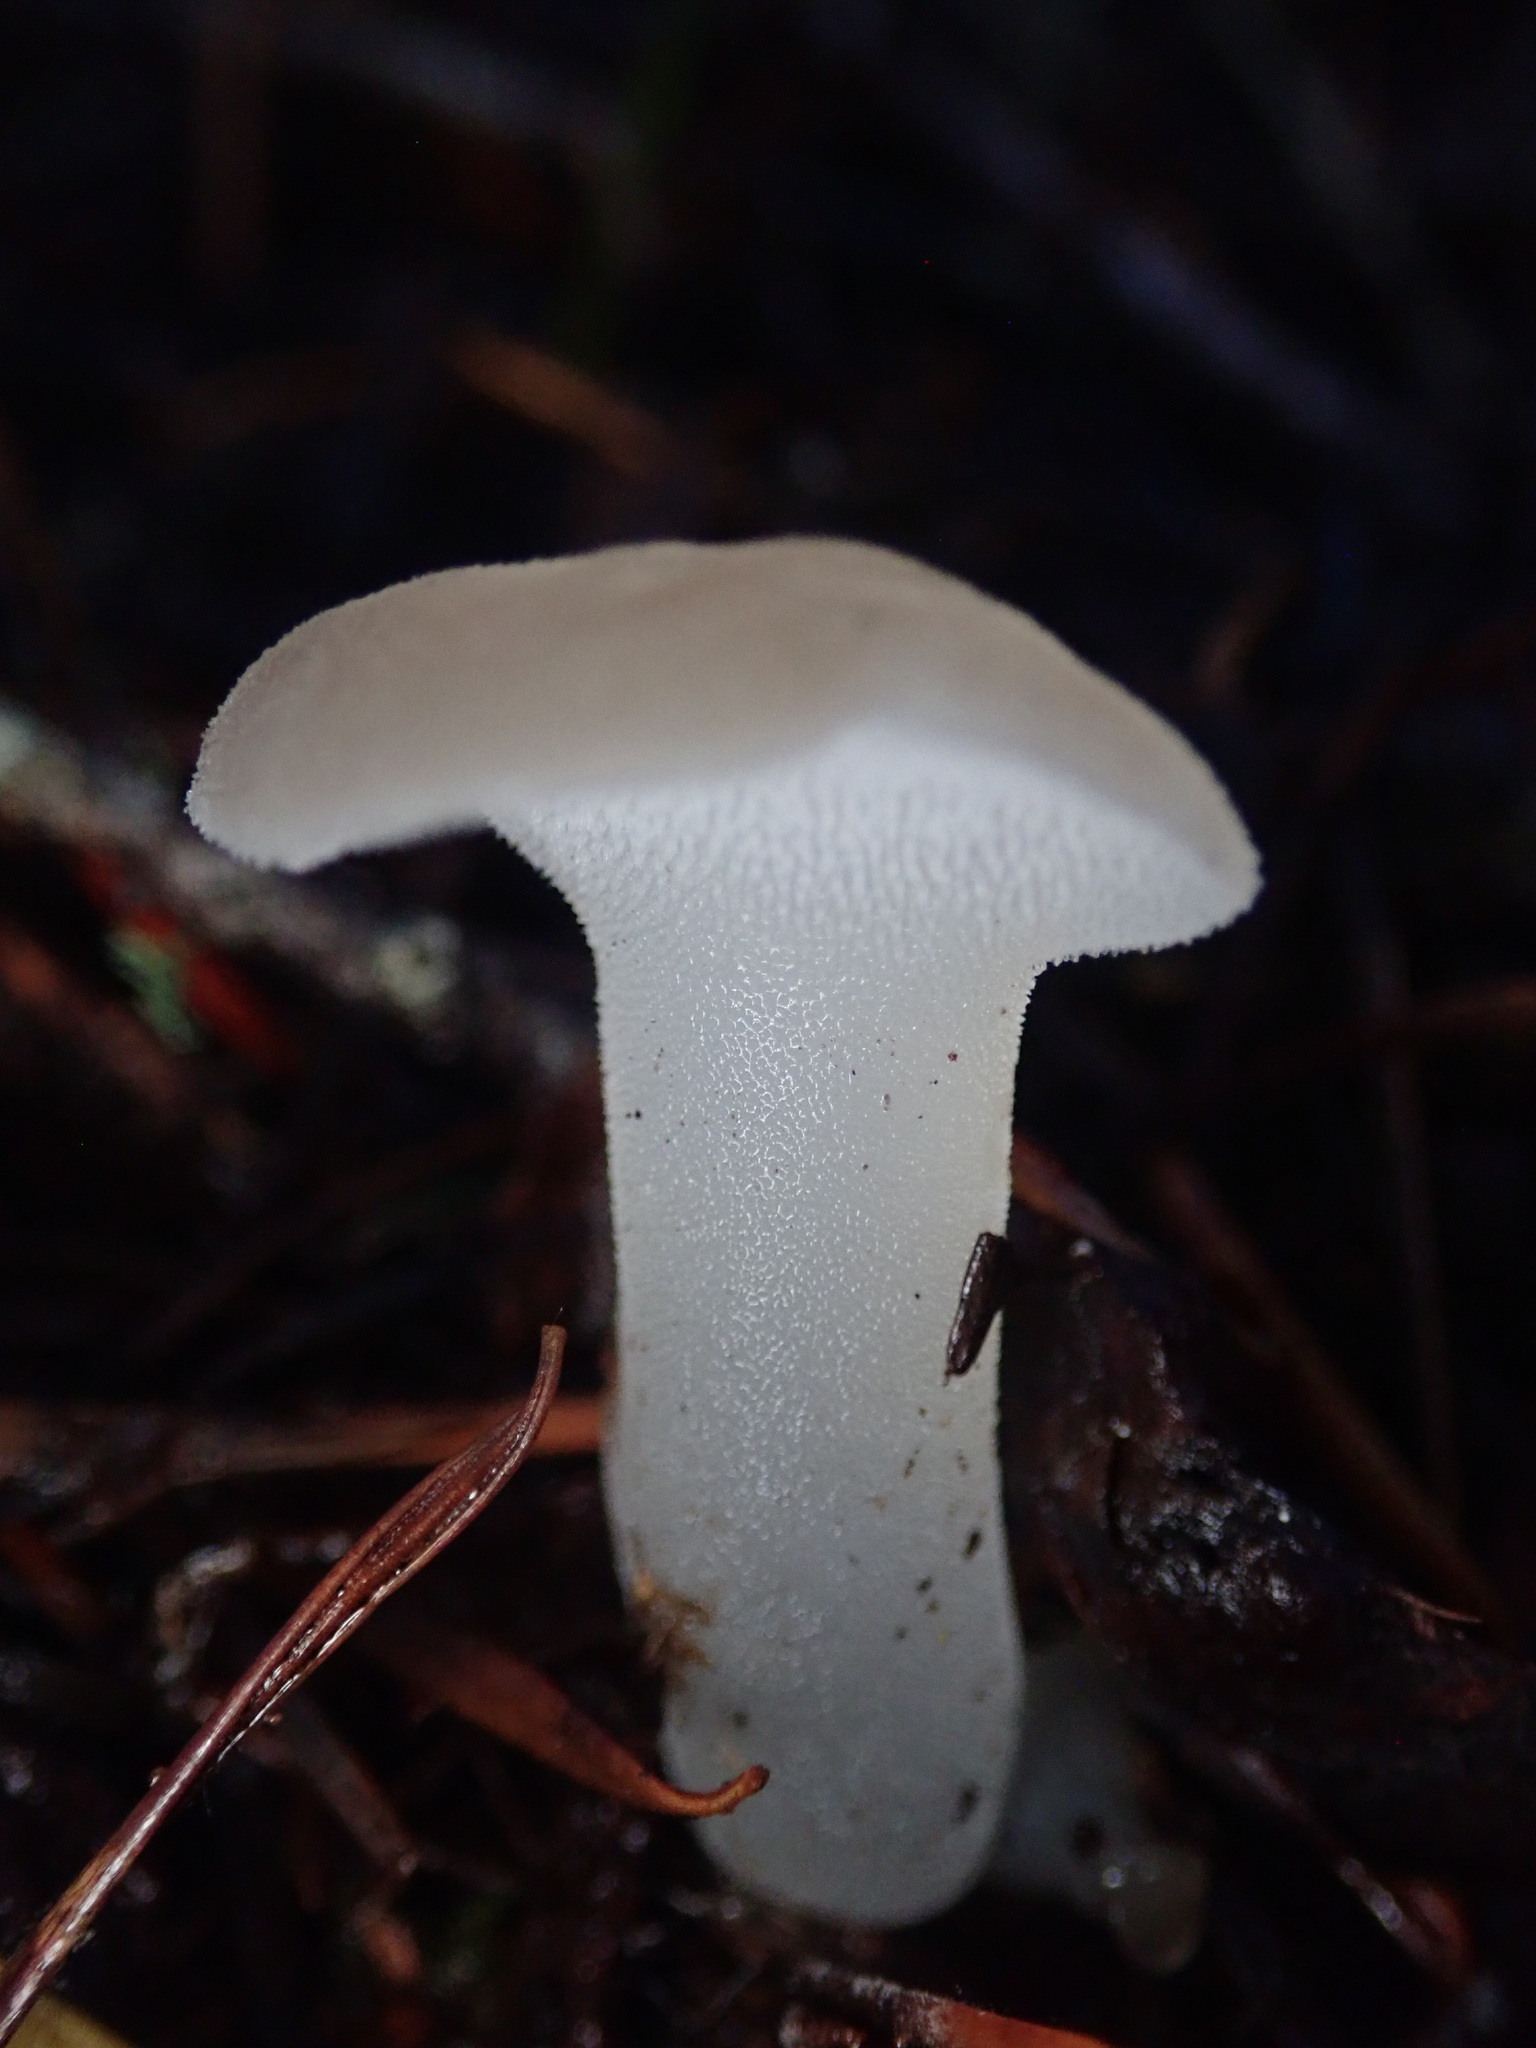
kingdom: Fungi
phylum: Basidiomycota
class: Agaricomycetes
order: Auriculariales
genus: Pseudohydnum
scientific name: Pseudohydnum gelatinosum
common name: Jelly tongue
